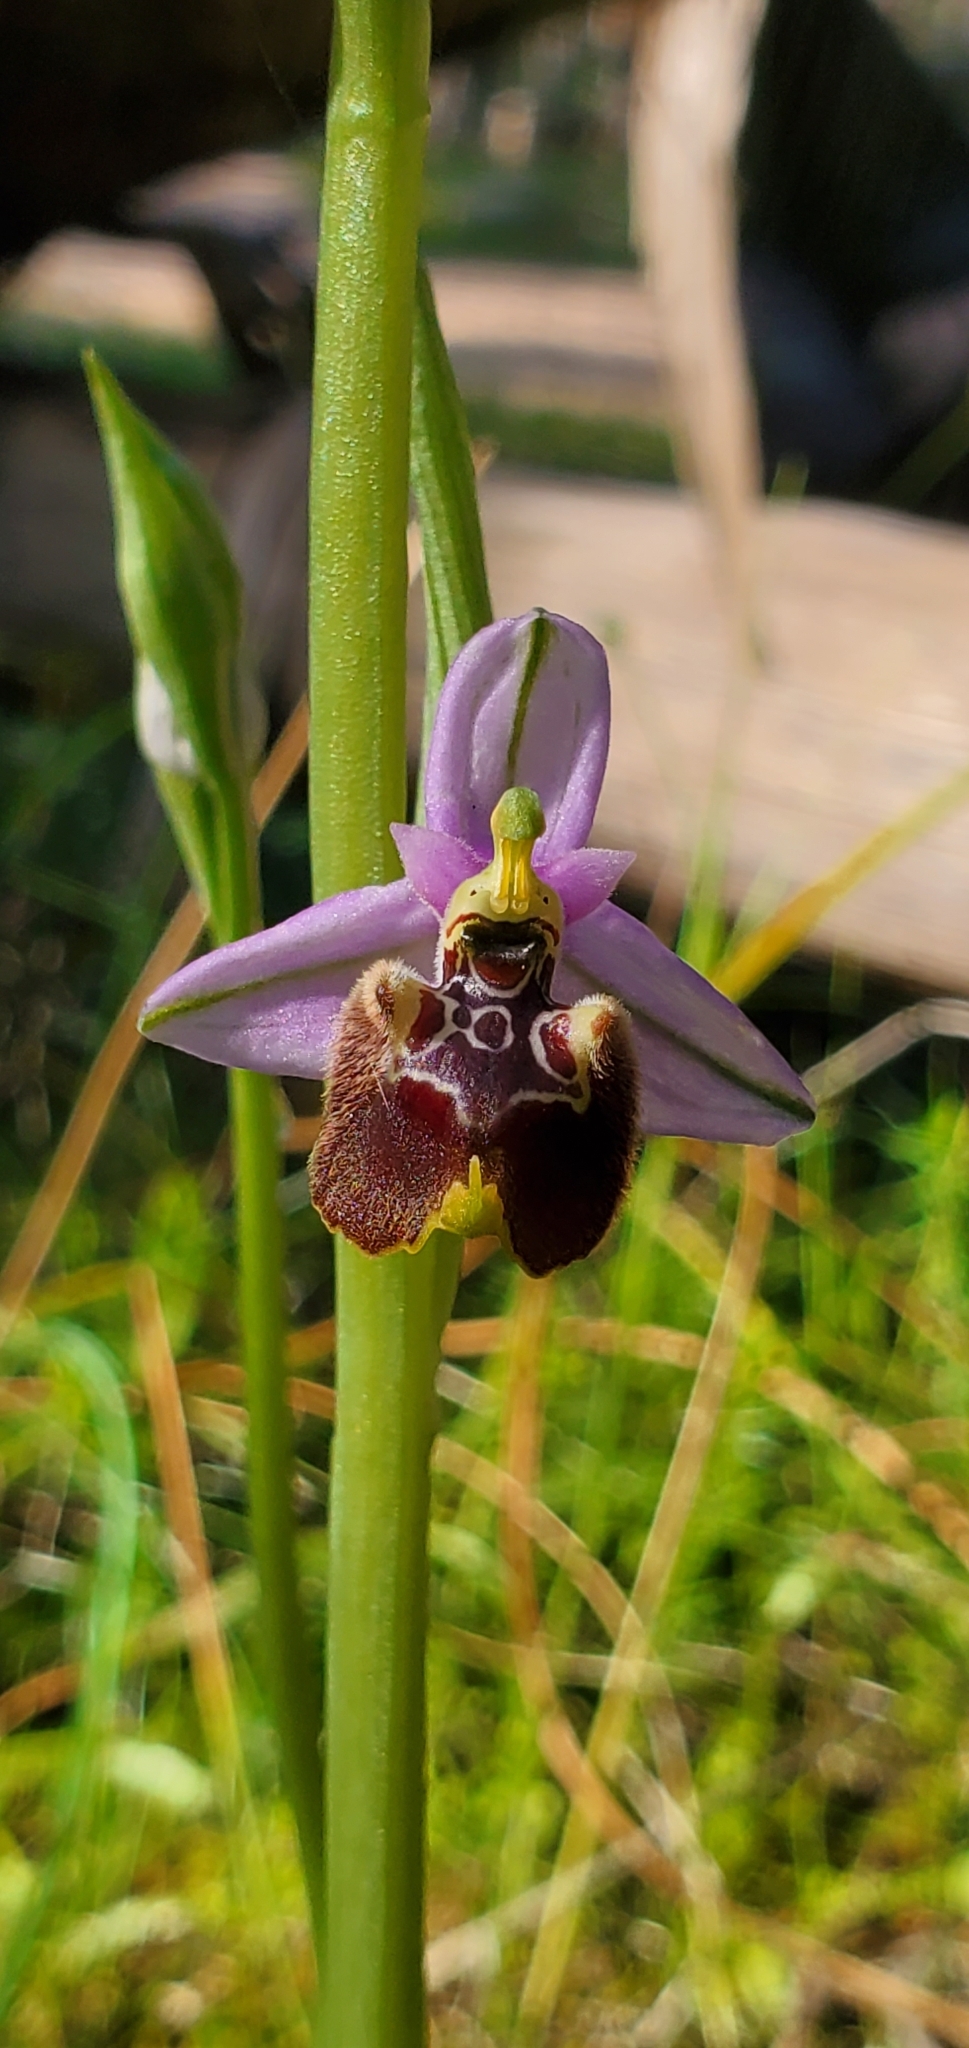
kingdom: Plantae
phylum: Tracheophyta
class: Liliopsida
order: Asparagales
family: Orchidaceae
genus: Ophrys
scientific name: Ophrys holosericea
